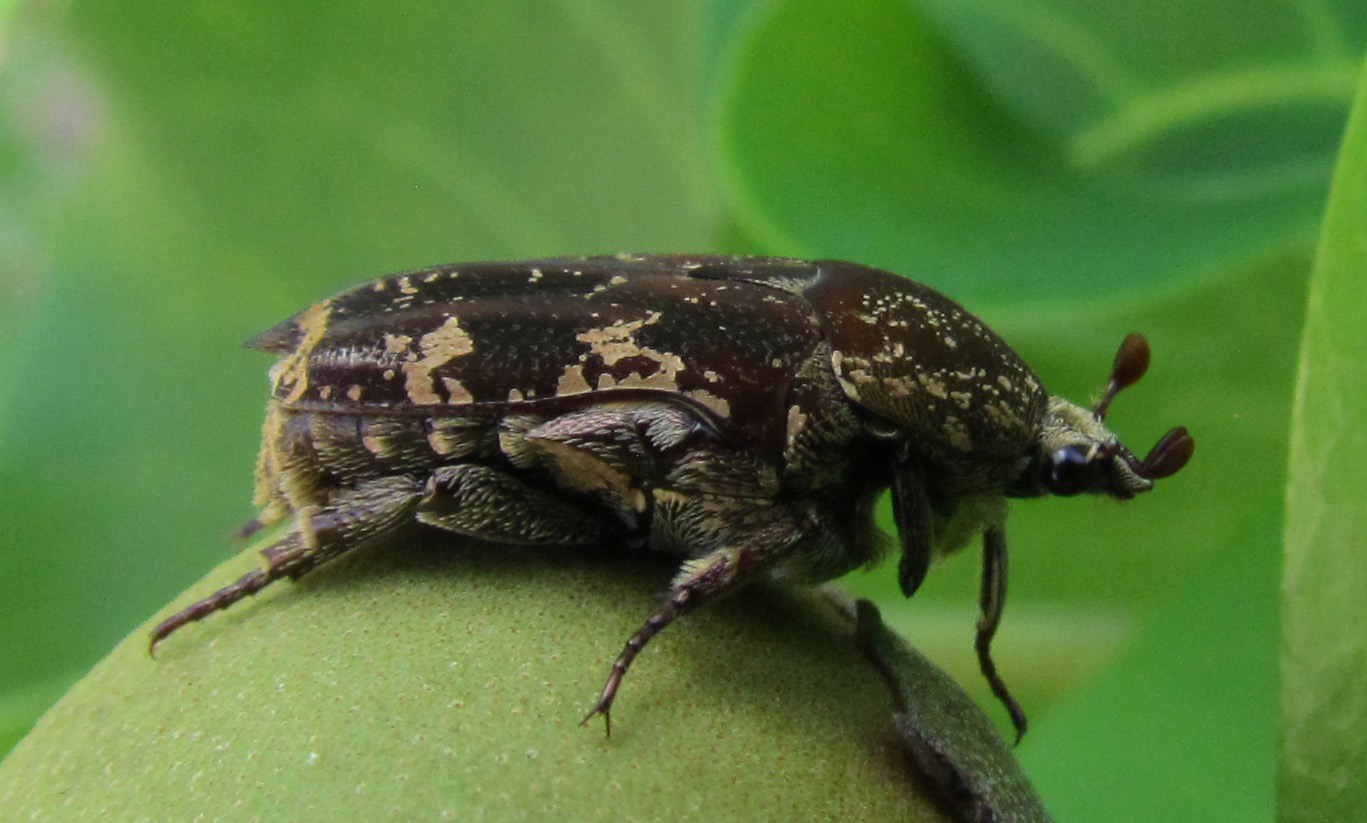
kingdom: Animalia
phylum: Arthropoda
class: Insecta
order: Coleoptera
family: Scarabaeidae
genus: Protaetia
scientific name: Protaetia fusca
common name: Mango flower beetle
